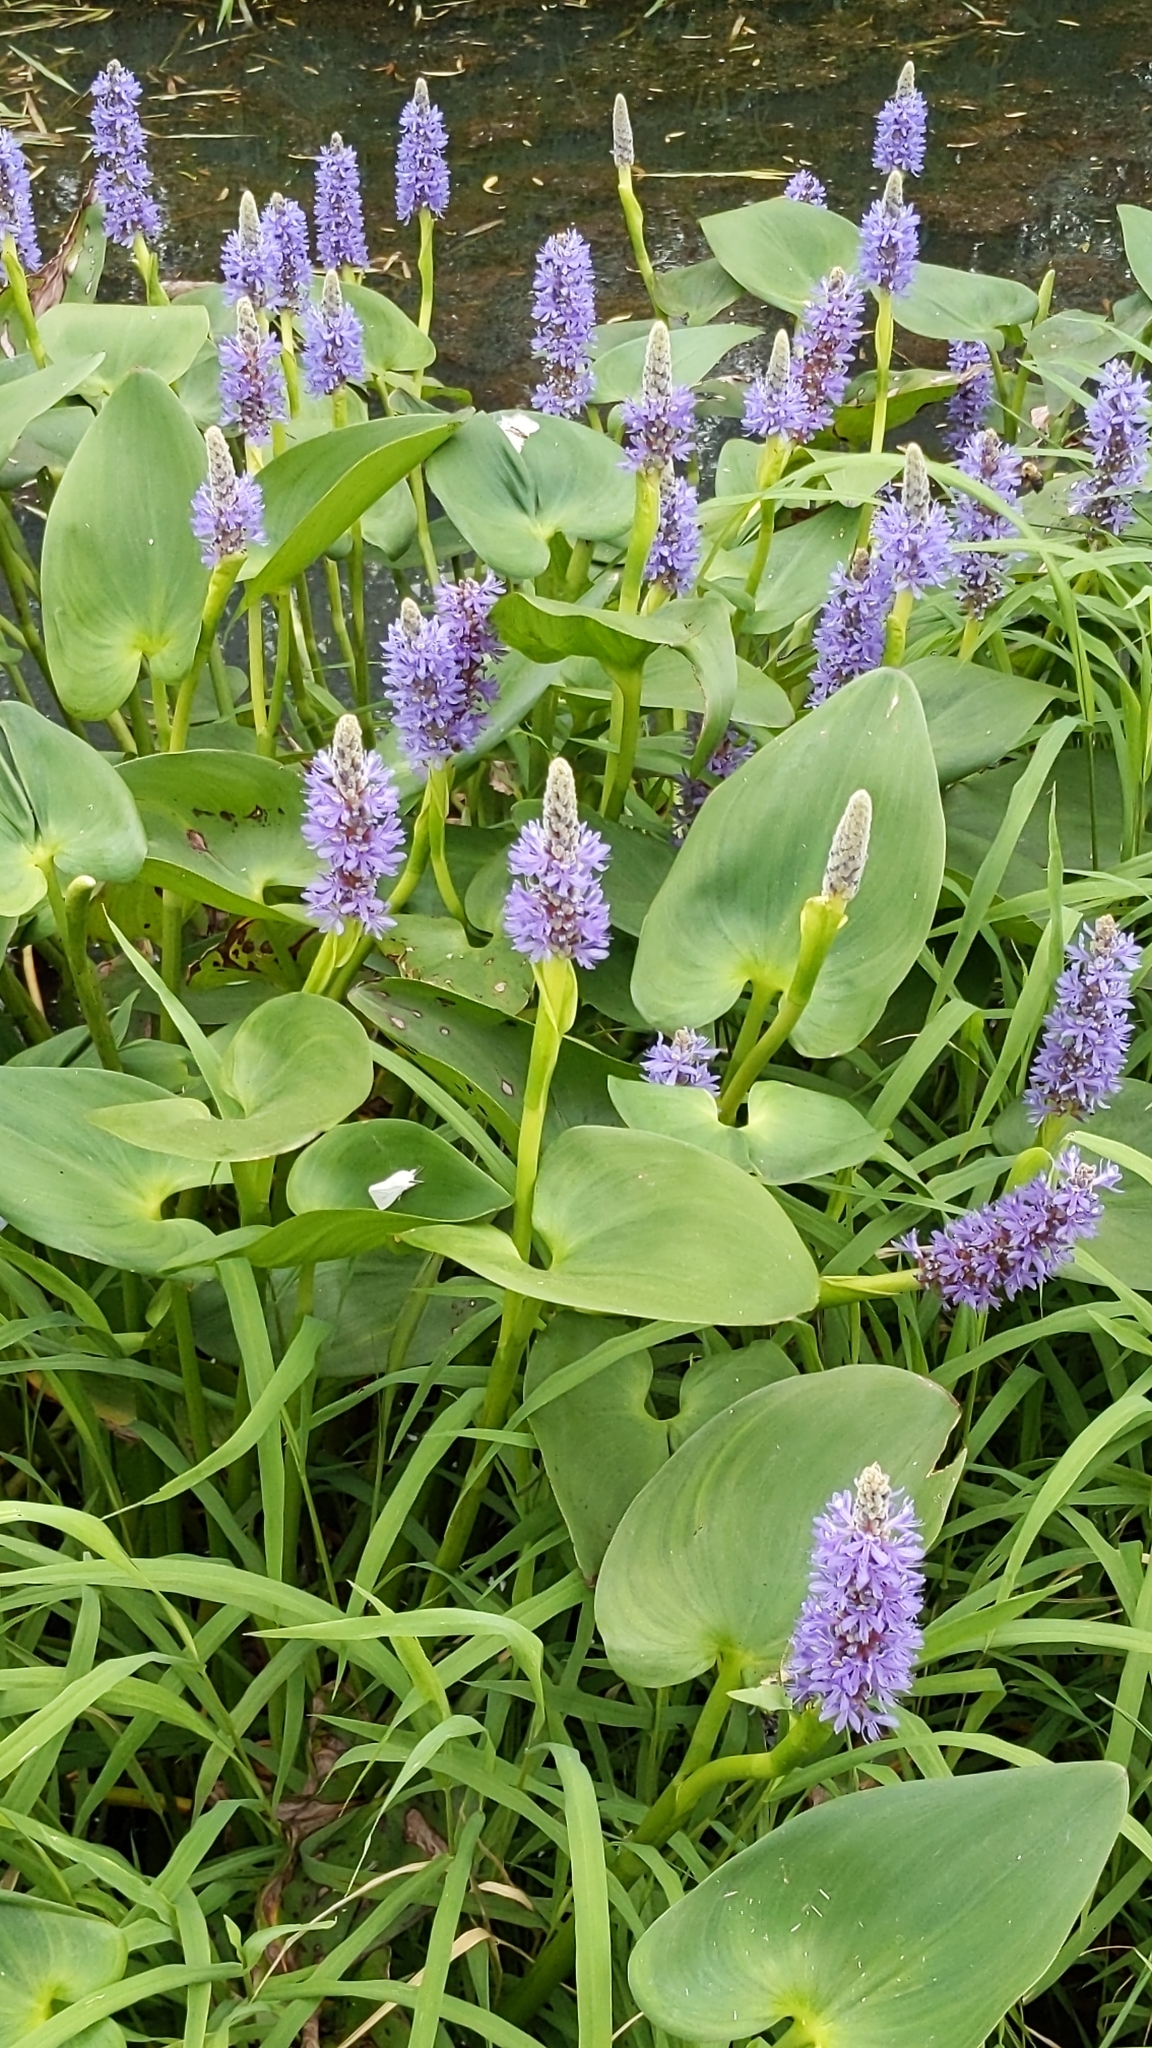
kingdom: Plantae
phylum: Tracheophyta
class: Liliopsida
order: Commelinales
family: Pontederiaceae
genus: Pontederia
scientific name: Pontederia cordata
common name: Pickerelweed
